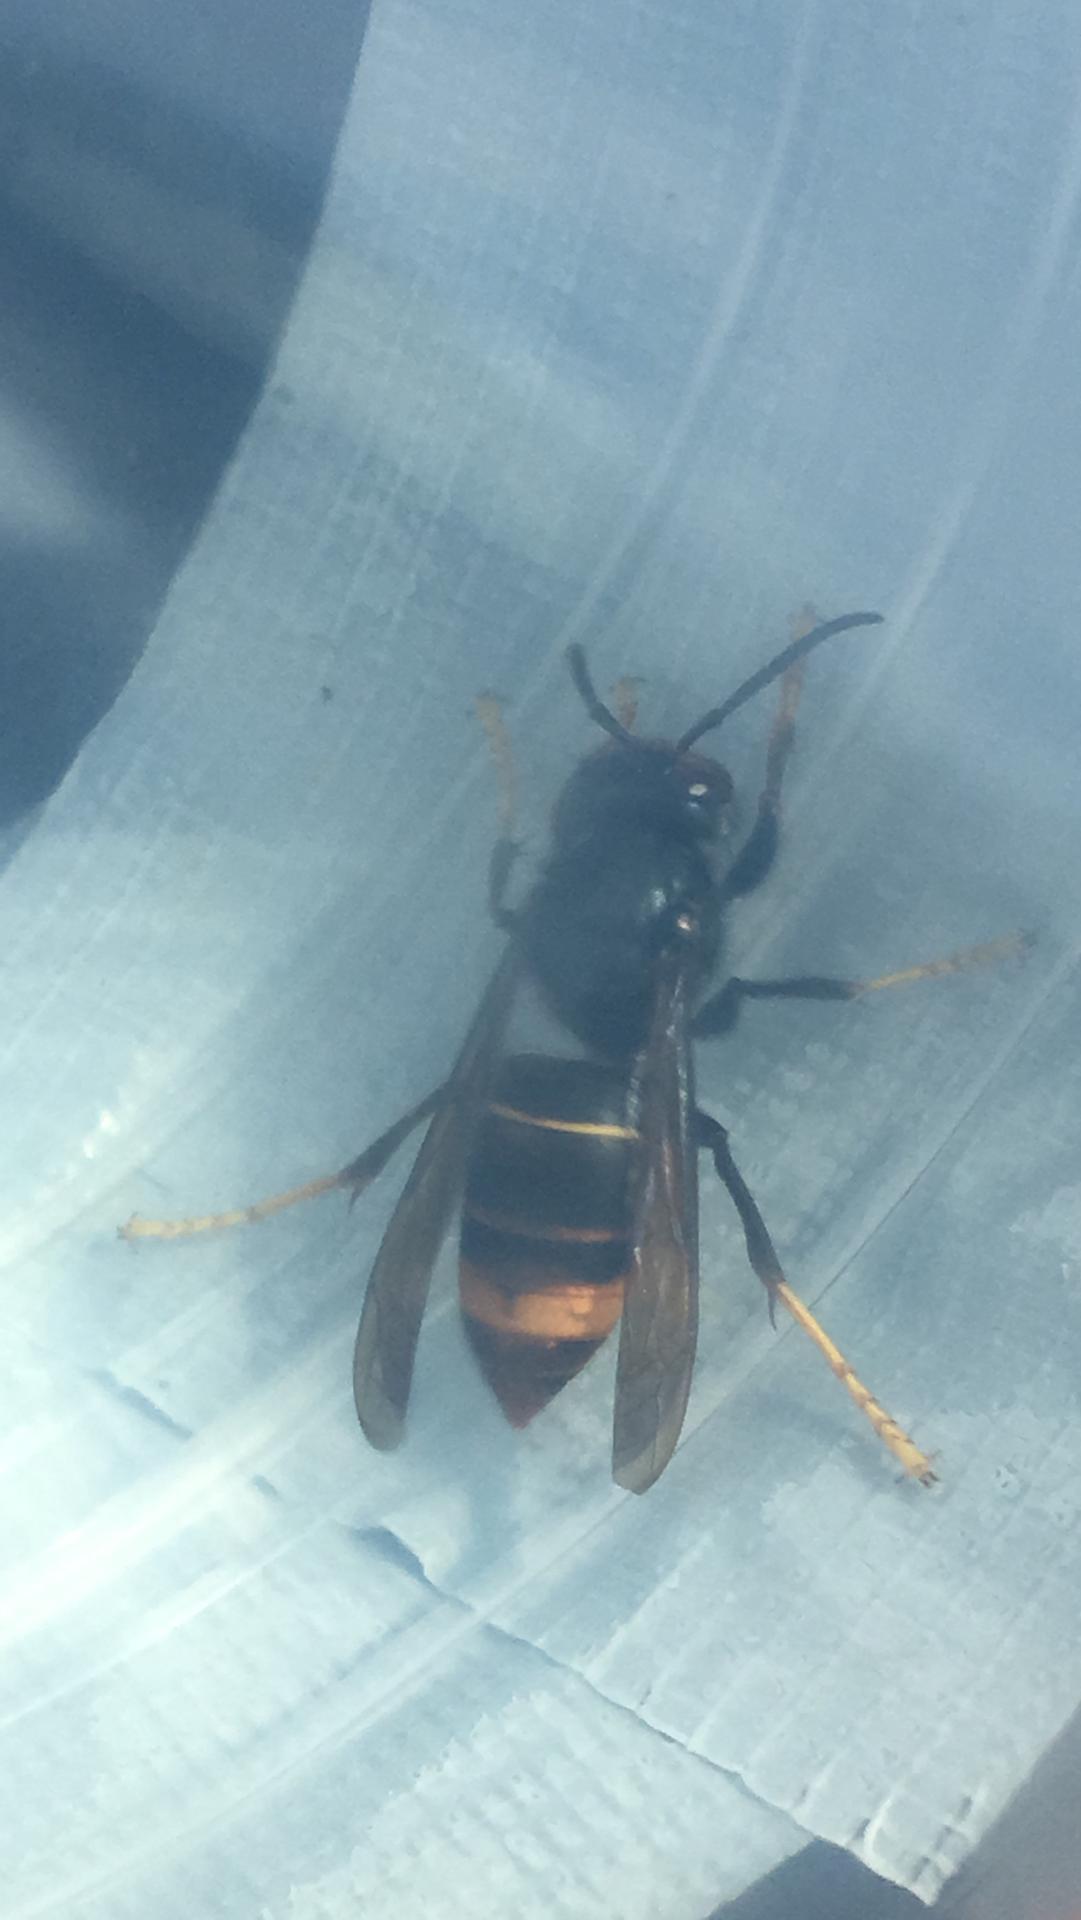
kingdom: Animalia
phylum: Arthropoda
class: Insecta
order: Hymenoptera
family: Vespidae
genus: Vespa
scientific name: Vespa velutina
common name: Asian hornet
